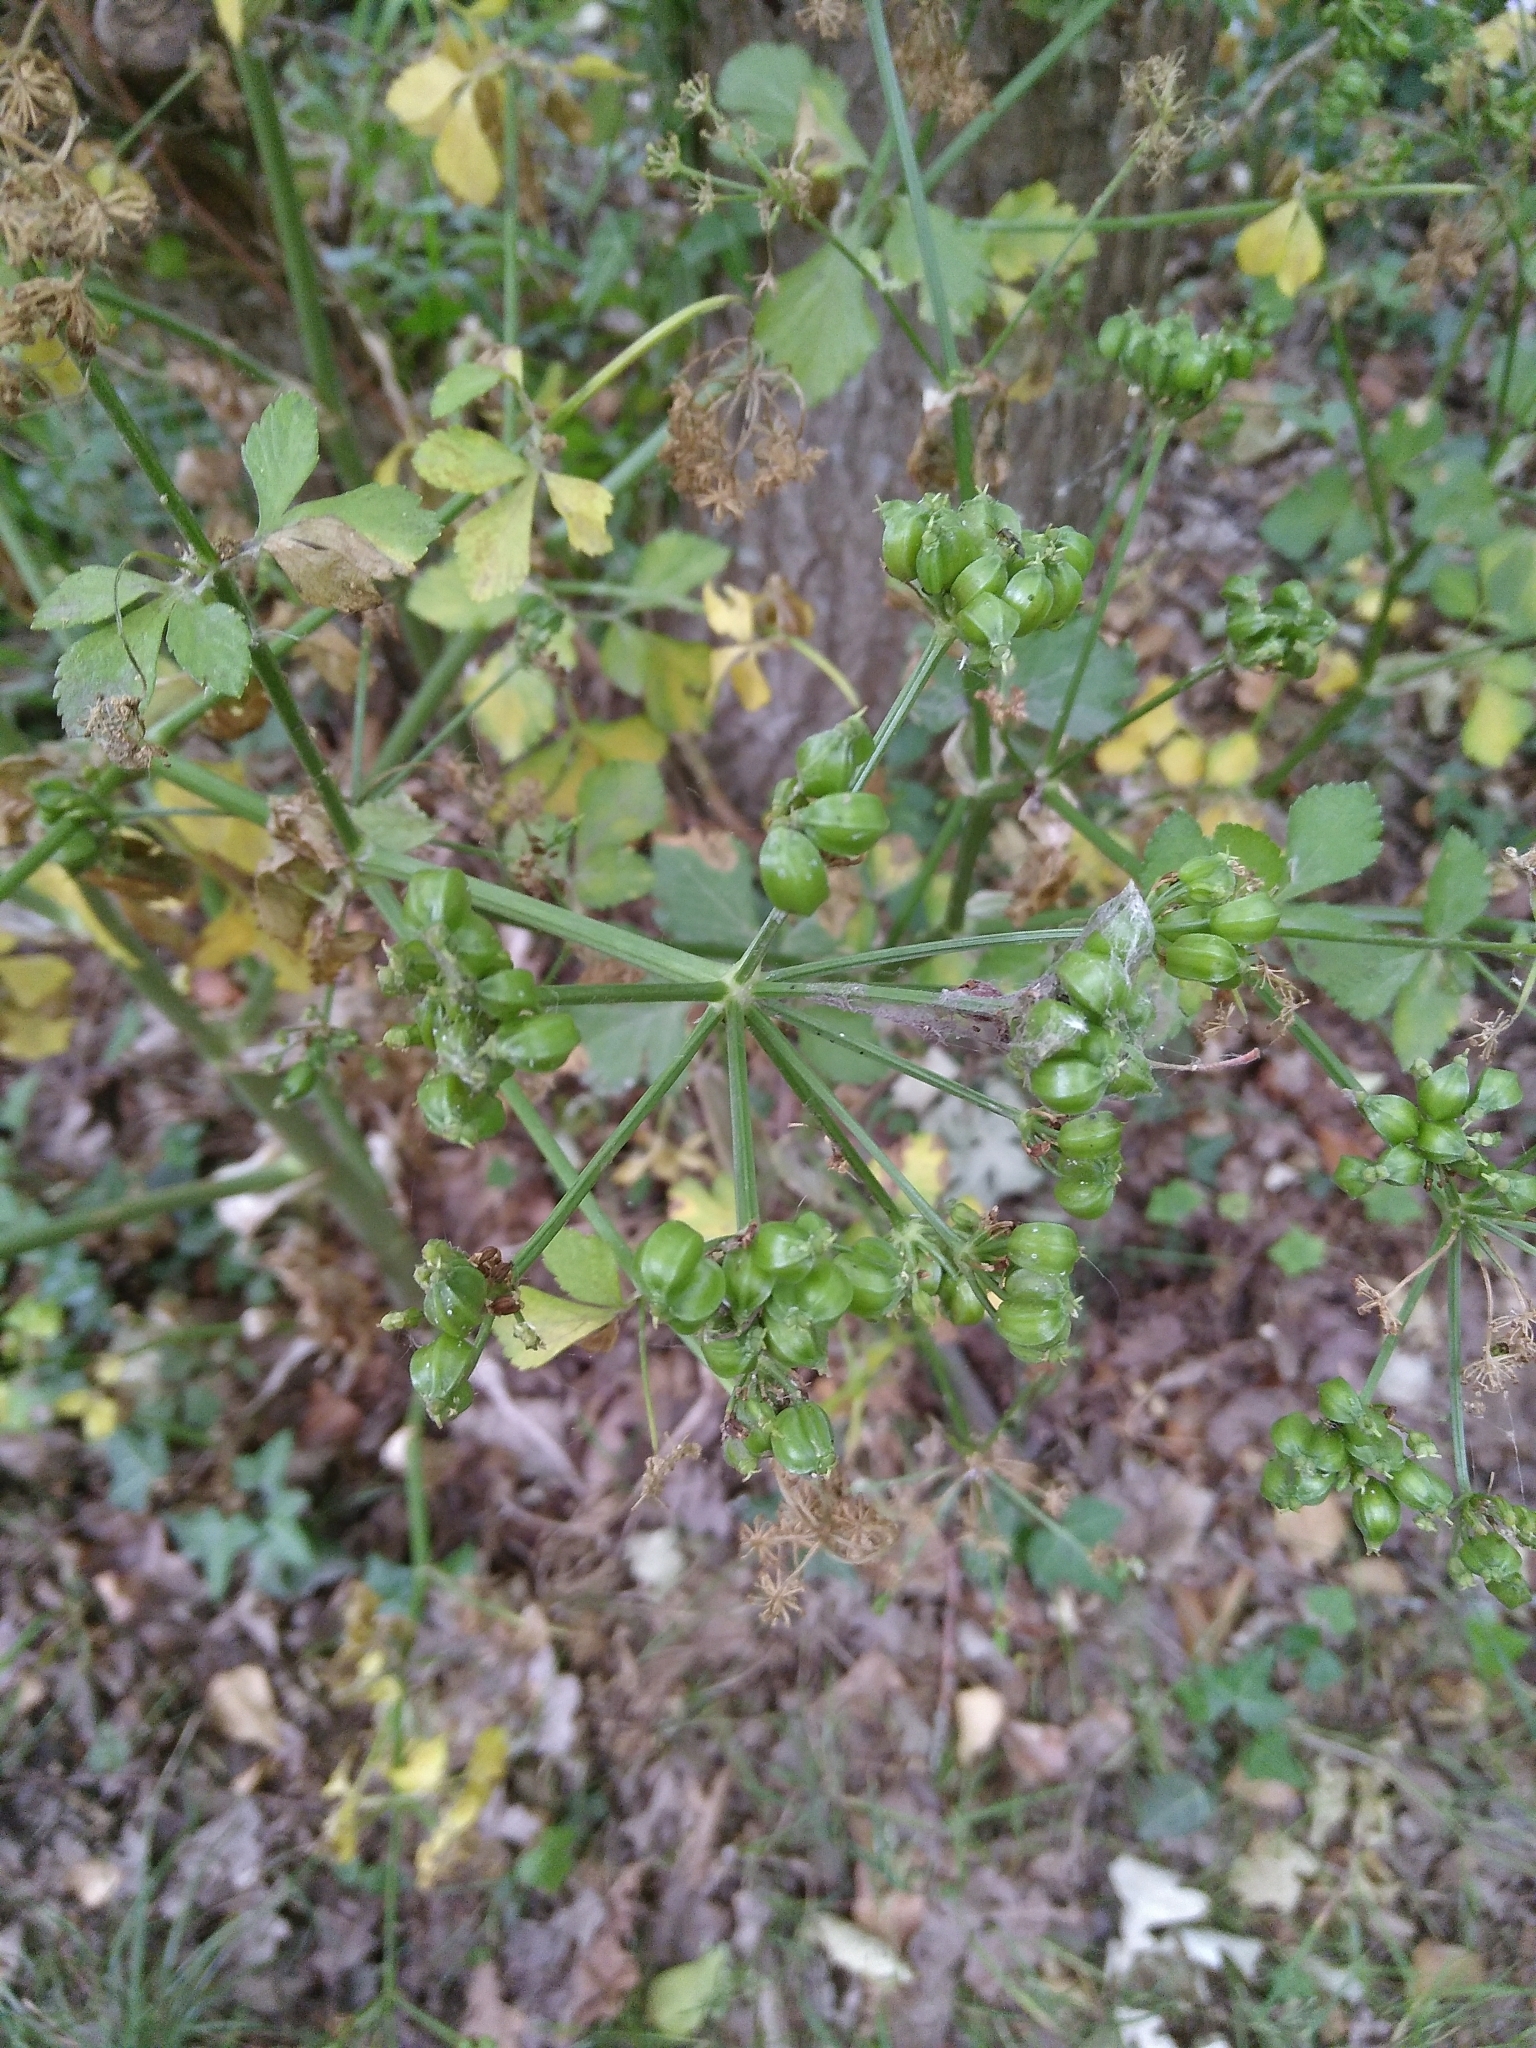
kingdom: Plantae
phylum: Tracheophyta
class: Magnoliopsida
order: Apiales
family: Apiaceae
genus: Smyrnium
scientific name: Smyrnium olusatrum
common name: Alexanders
